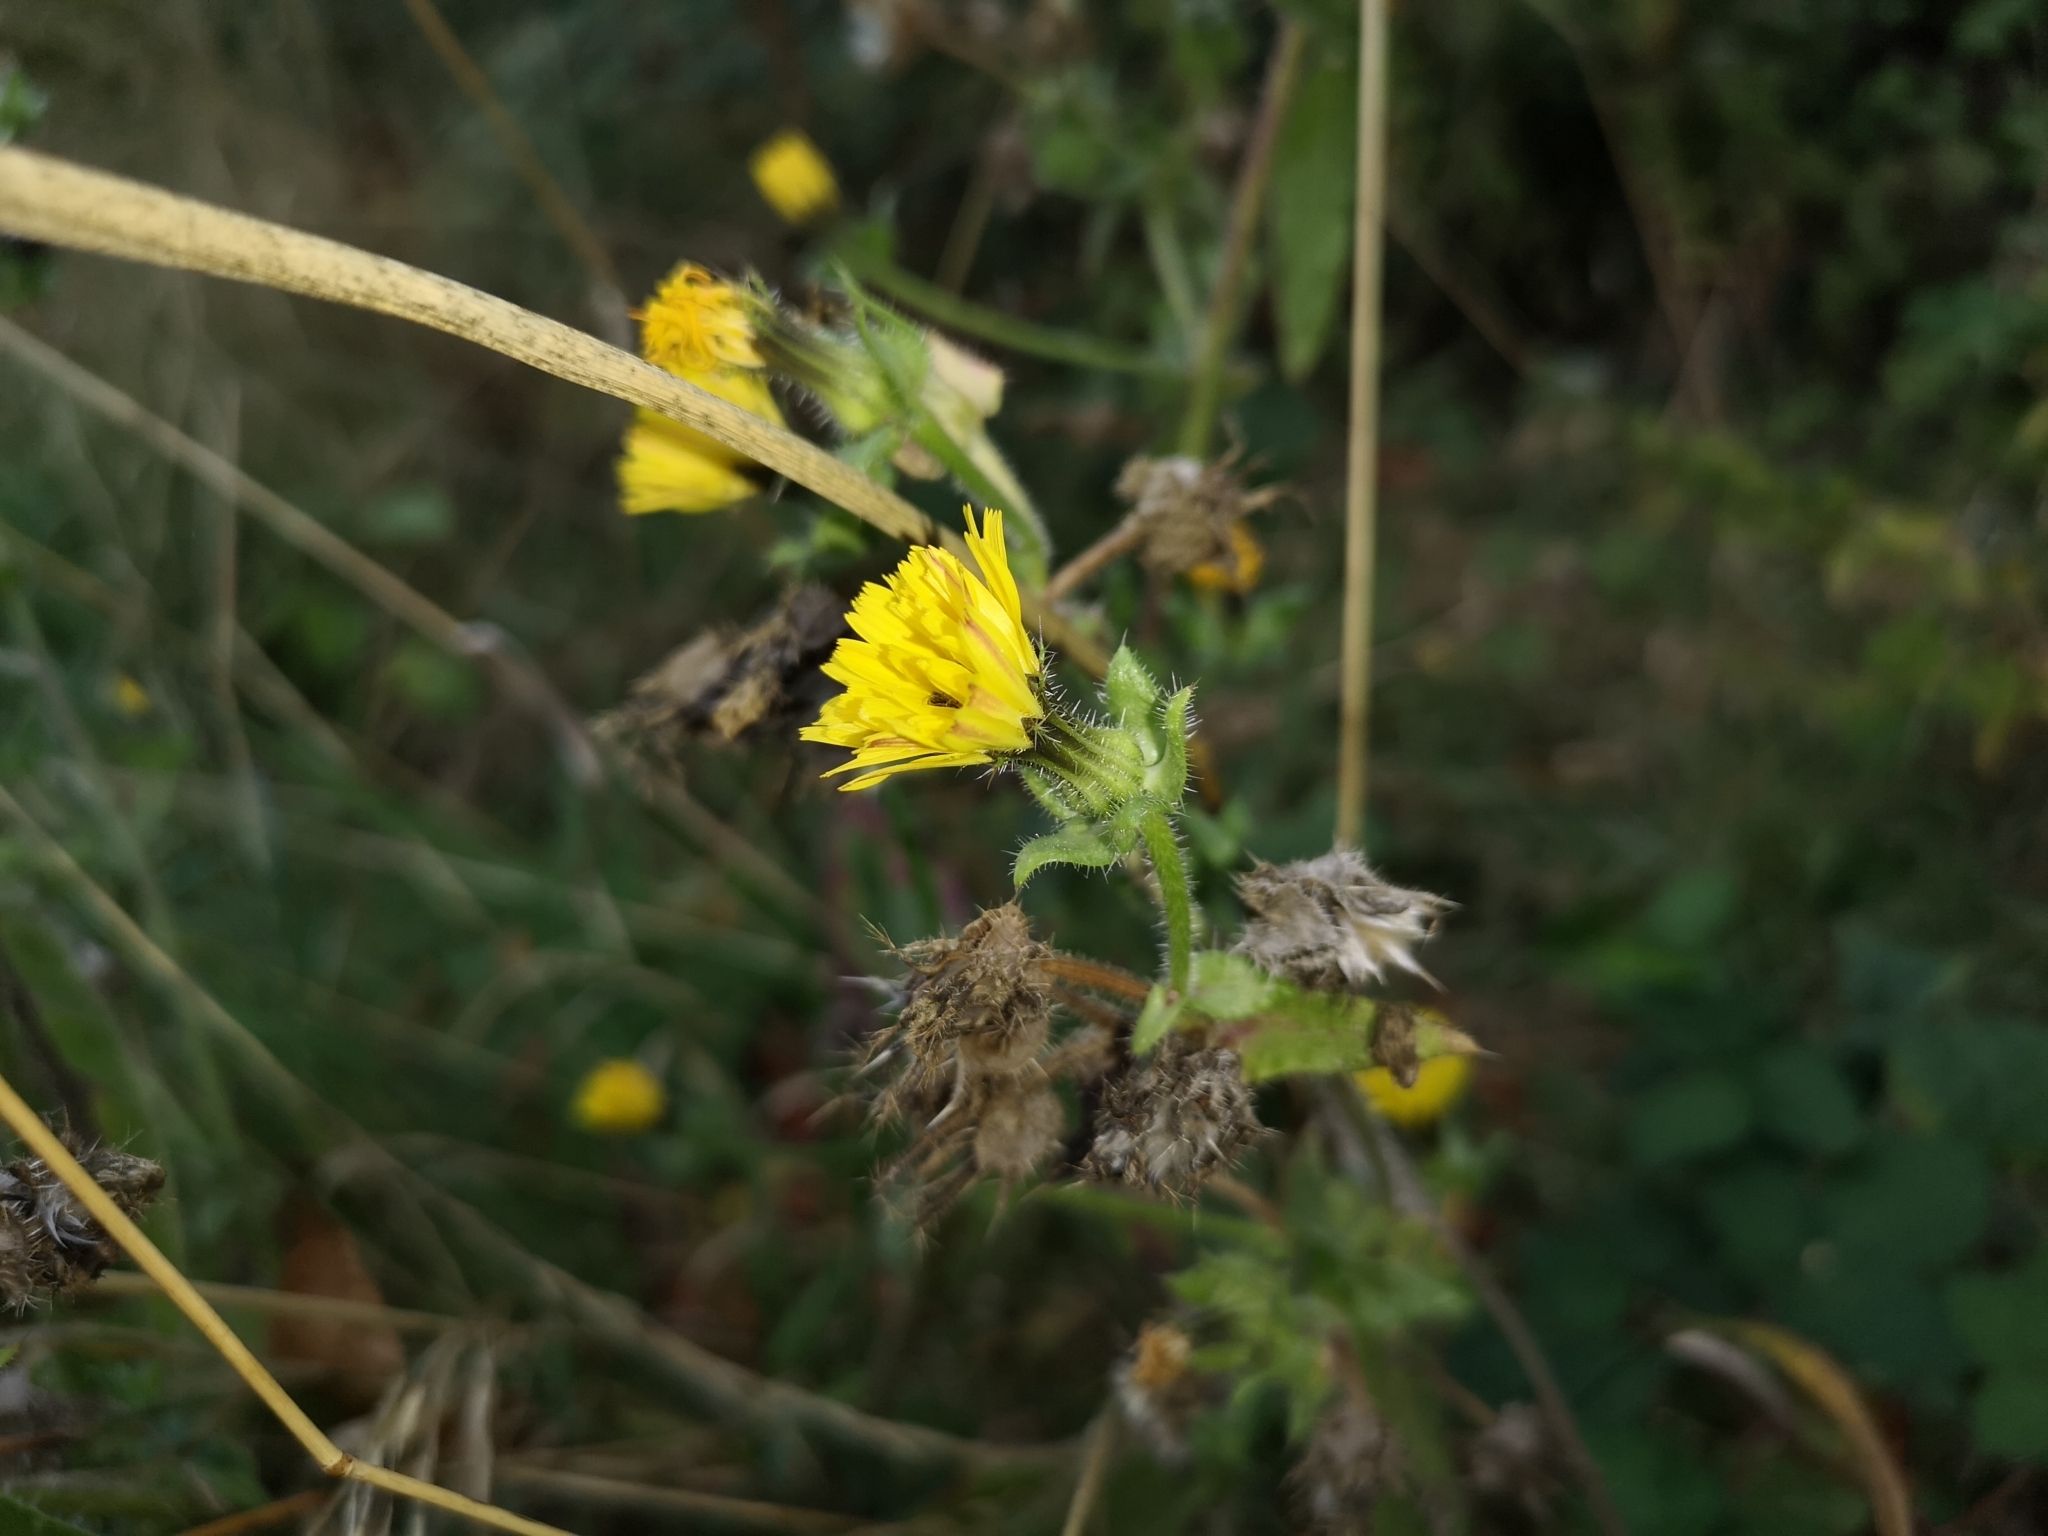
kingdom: Plantae
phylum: Tracheophyta
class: Magnoliopsida
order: Asterales
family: Asteraceae
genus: Helminthotheca
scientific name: Helminthotheca echioides
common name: Ox-tongue
